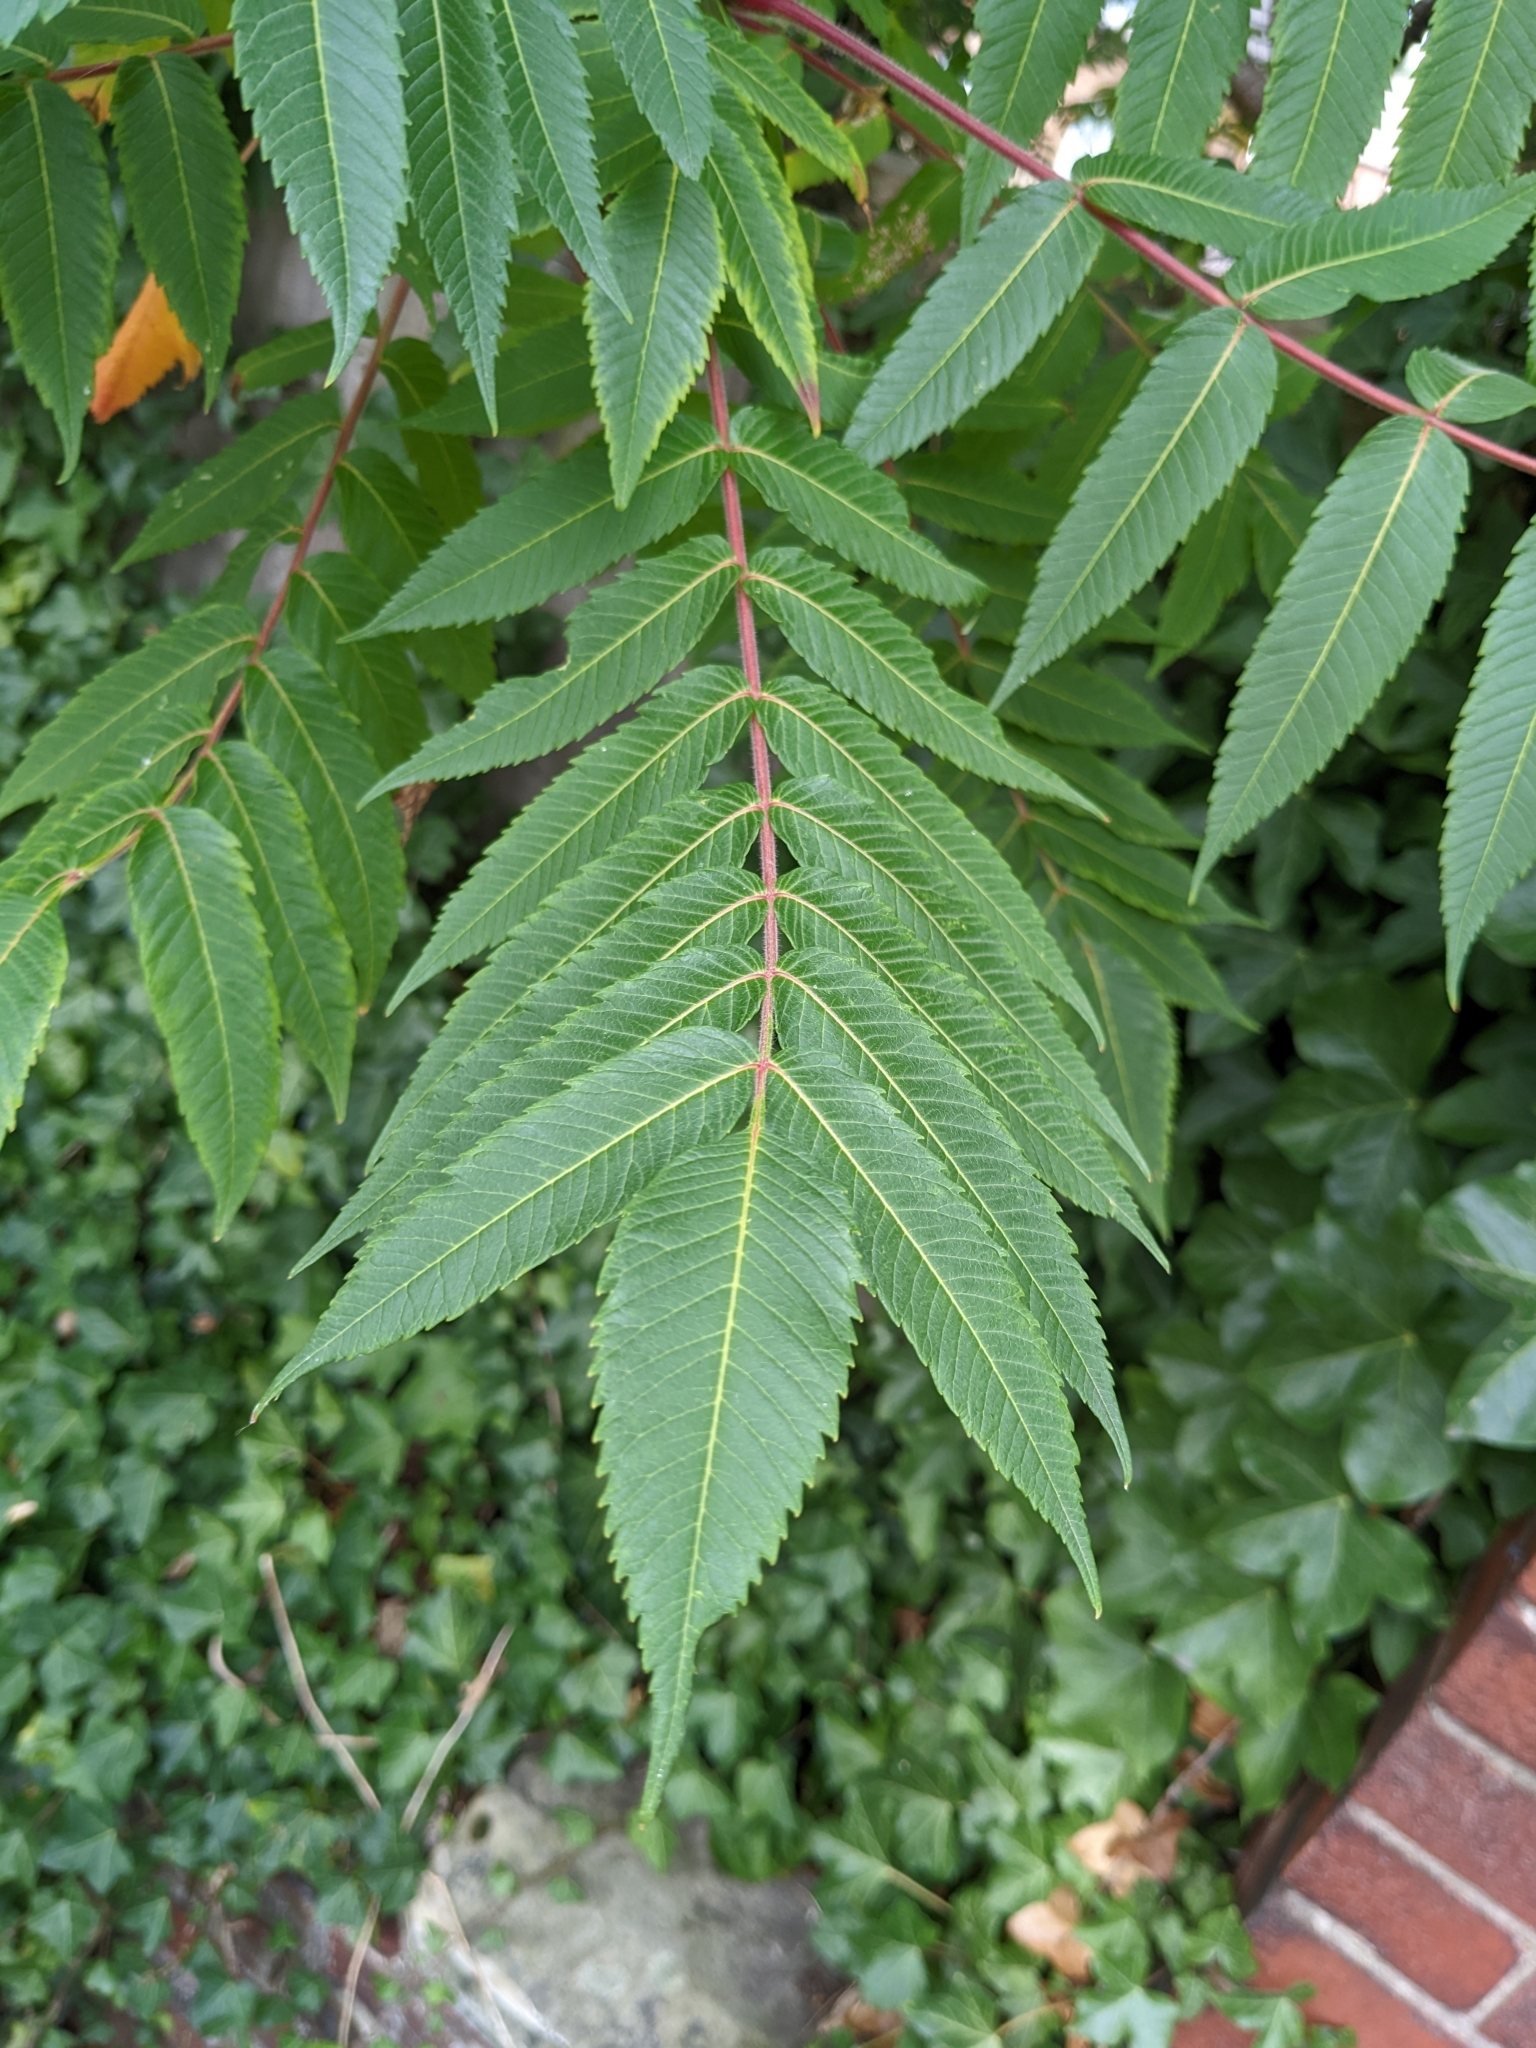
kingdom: Plantae
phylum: Tracheophyta
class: Magnoliopsida
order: Sapindales
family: Anacardiaceae
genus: Rhus
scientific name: Rhus typhina
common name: Staghorn sumac
